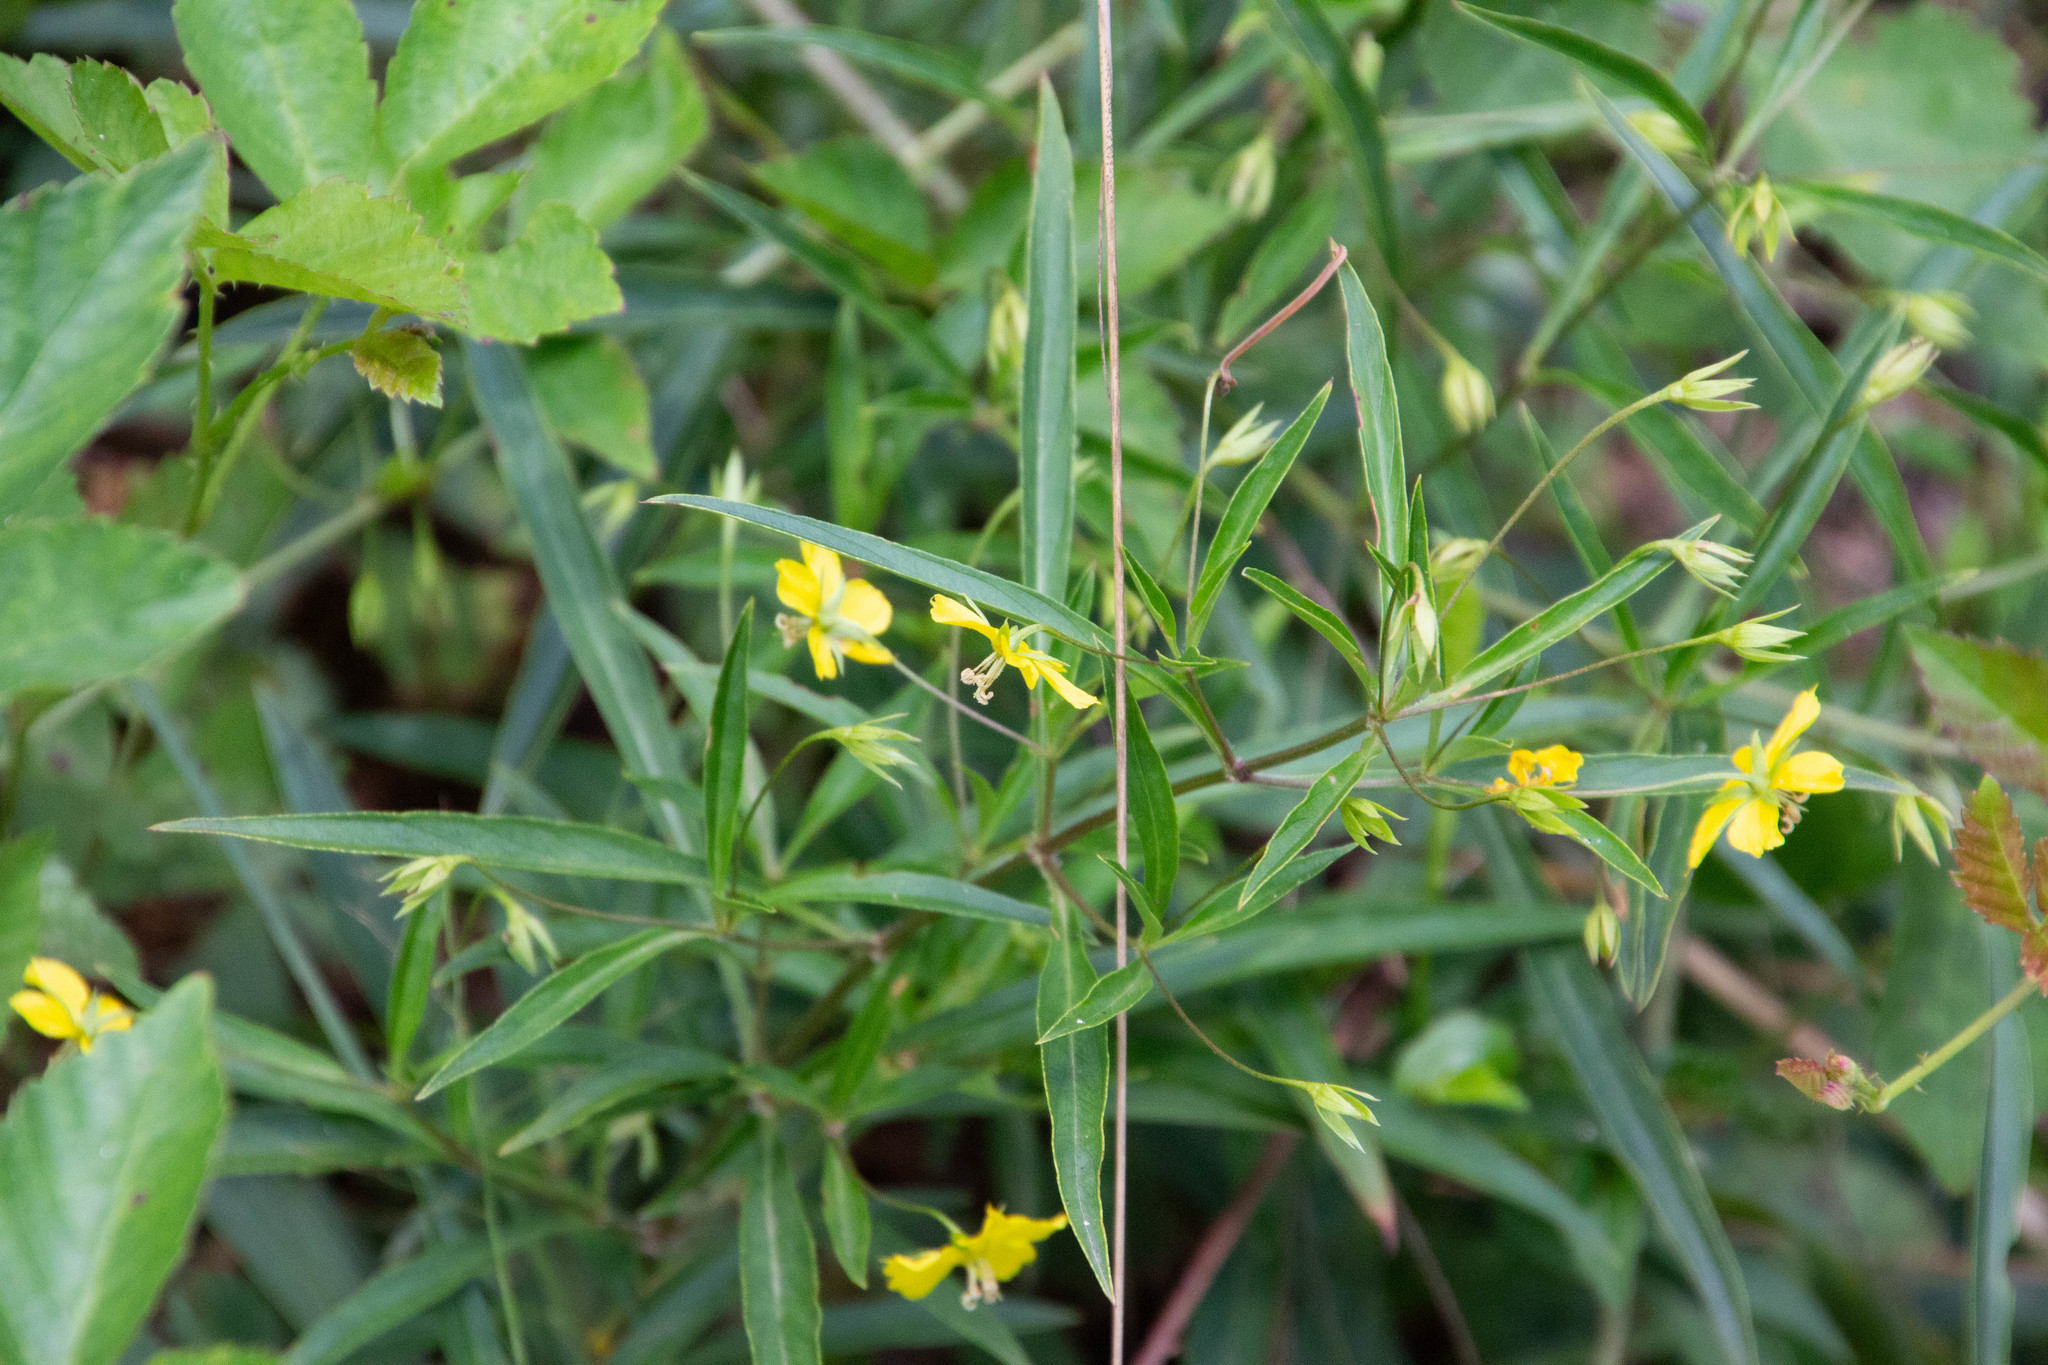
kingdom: Plantae
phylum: Tracheophyta
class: Magnoliopsida
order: Ericales
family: Primulaceae
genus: Lysimachia
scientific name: Lysimachia lanceolata
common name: Lance-leaved loosestrife
